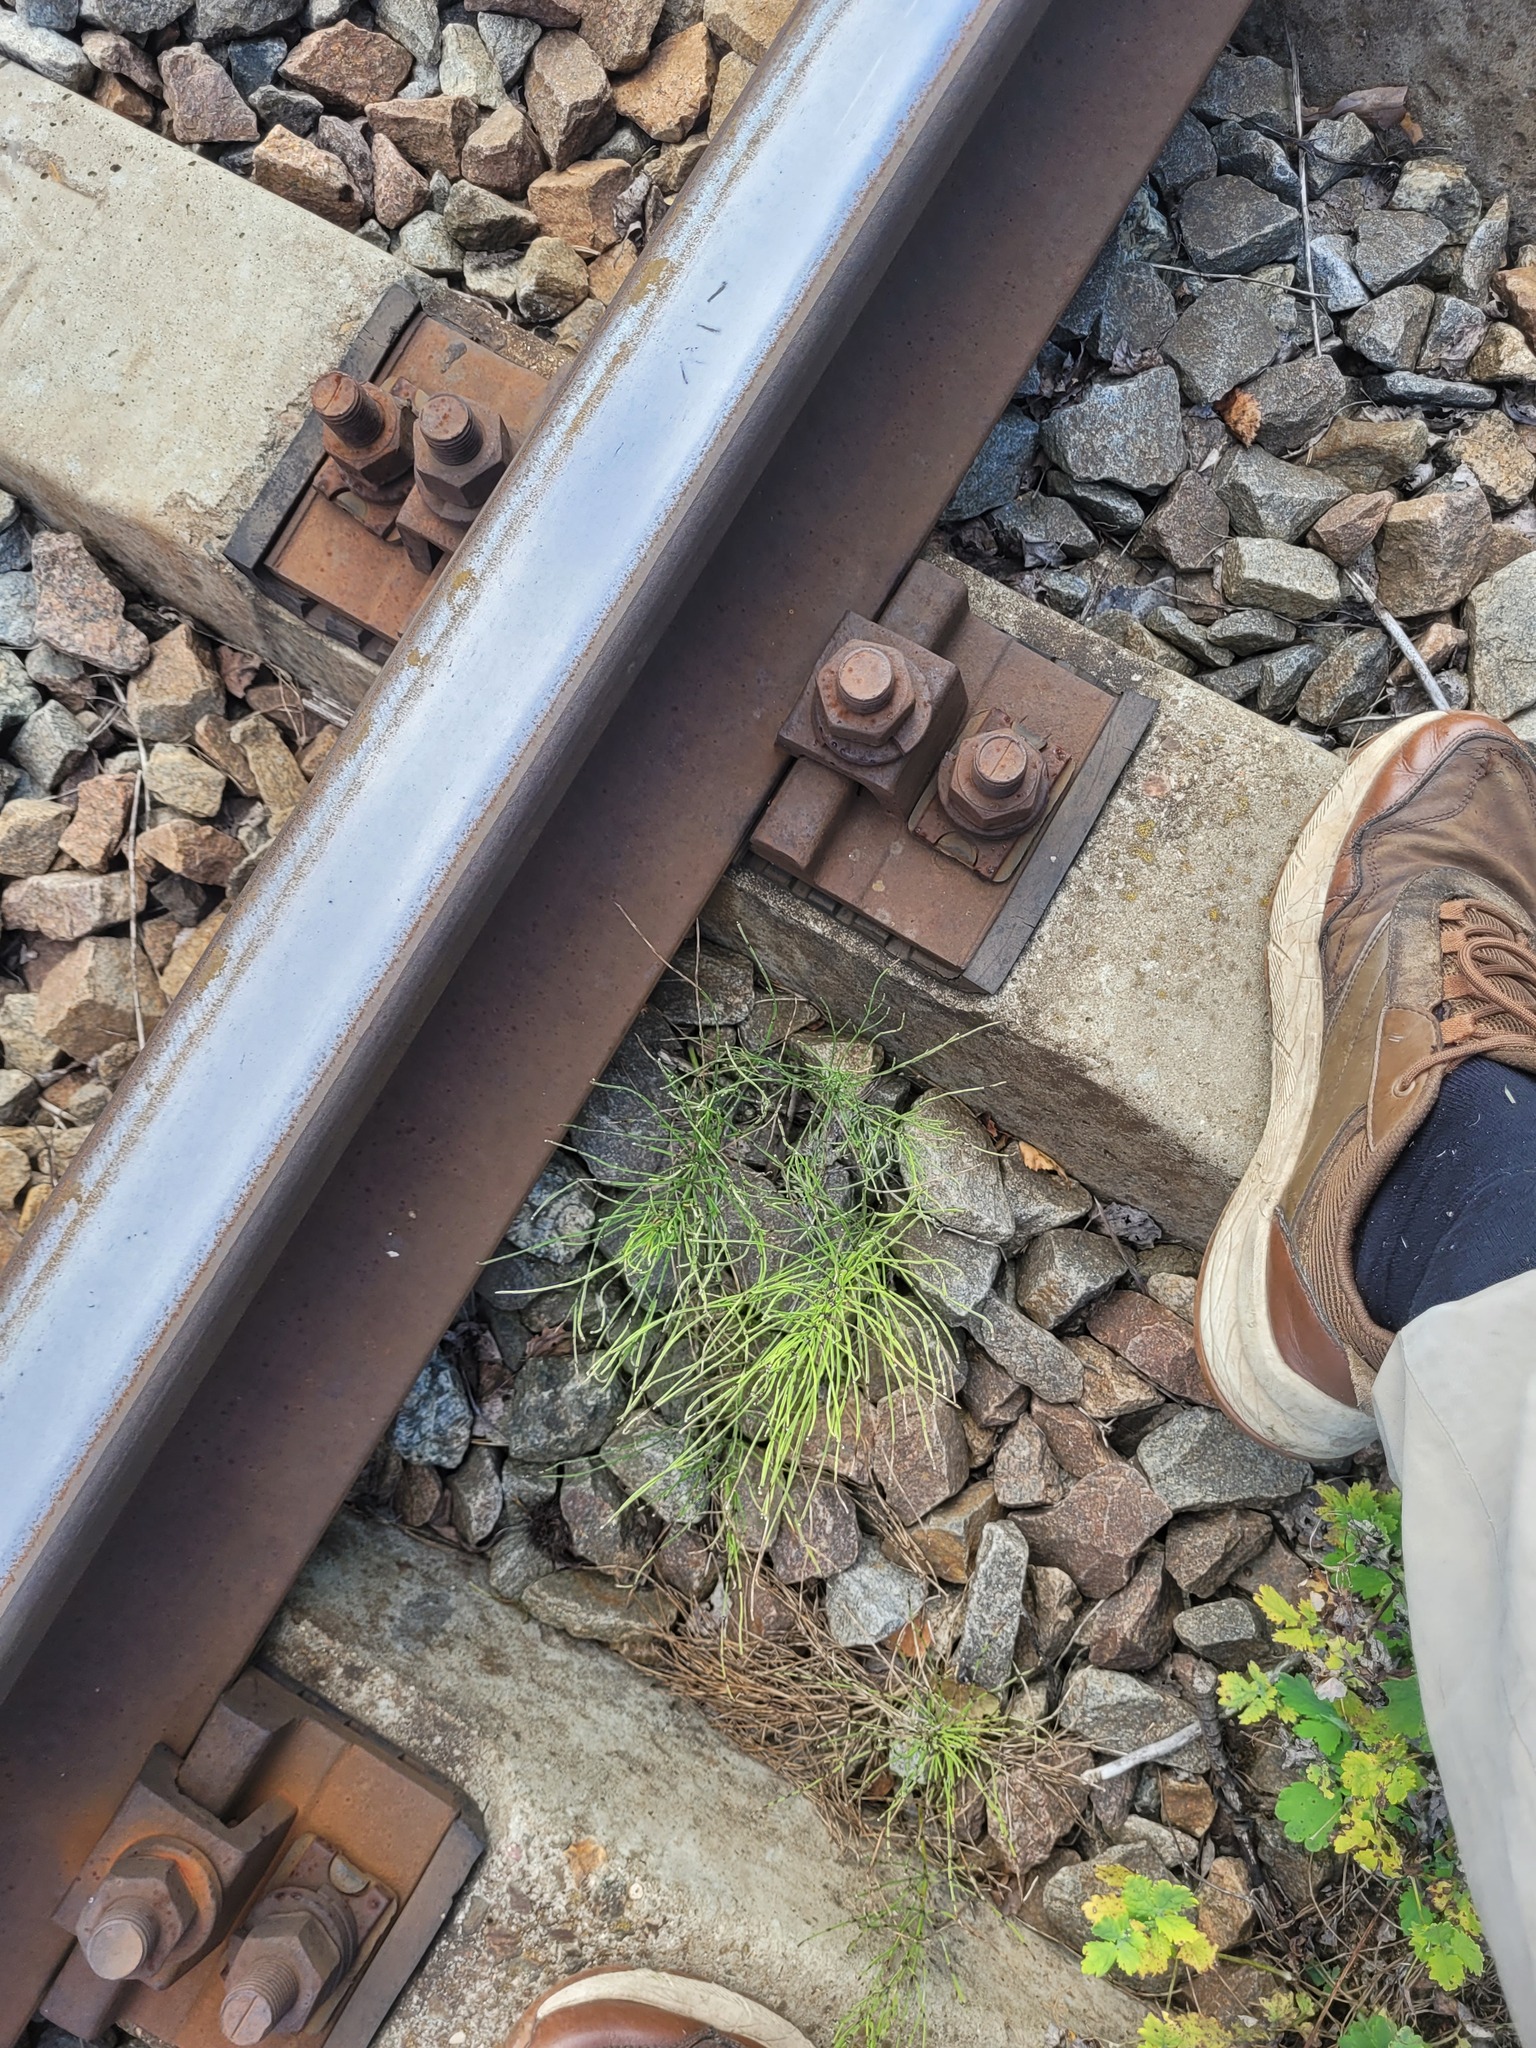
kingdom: Plantae
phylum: Tracheophyta
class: Polypodiopsida
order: Equisetales
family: Equisetaceae
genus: Equisetum
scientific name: Equisetum arvense
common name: Field horsetail
